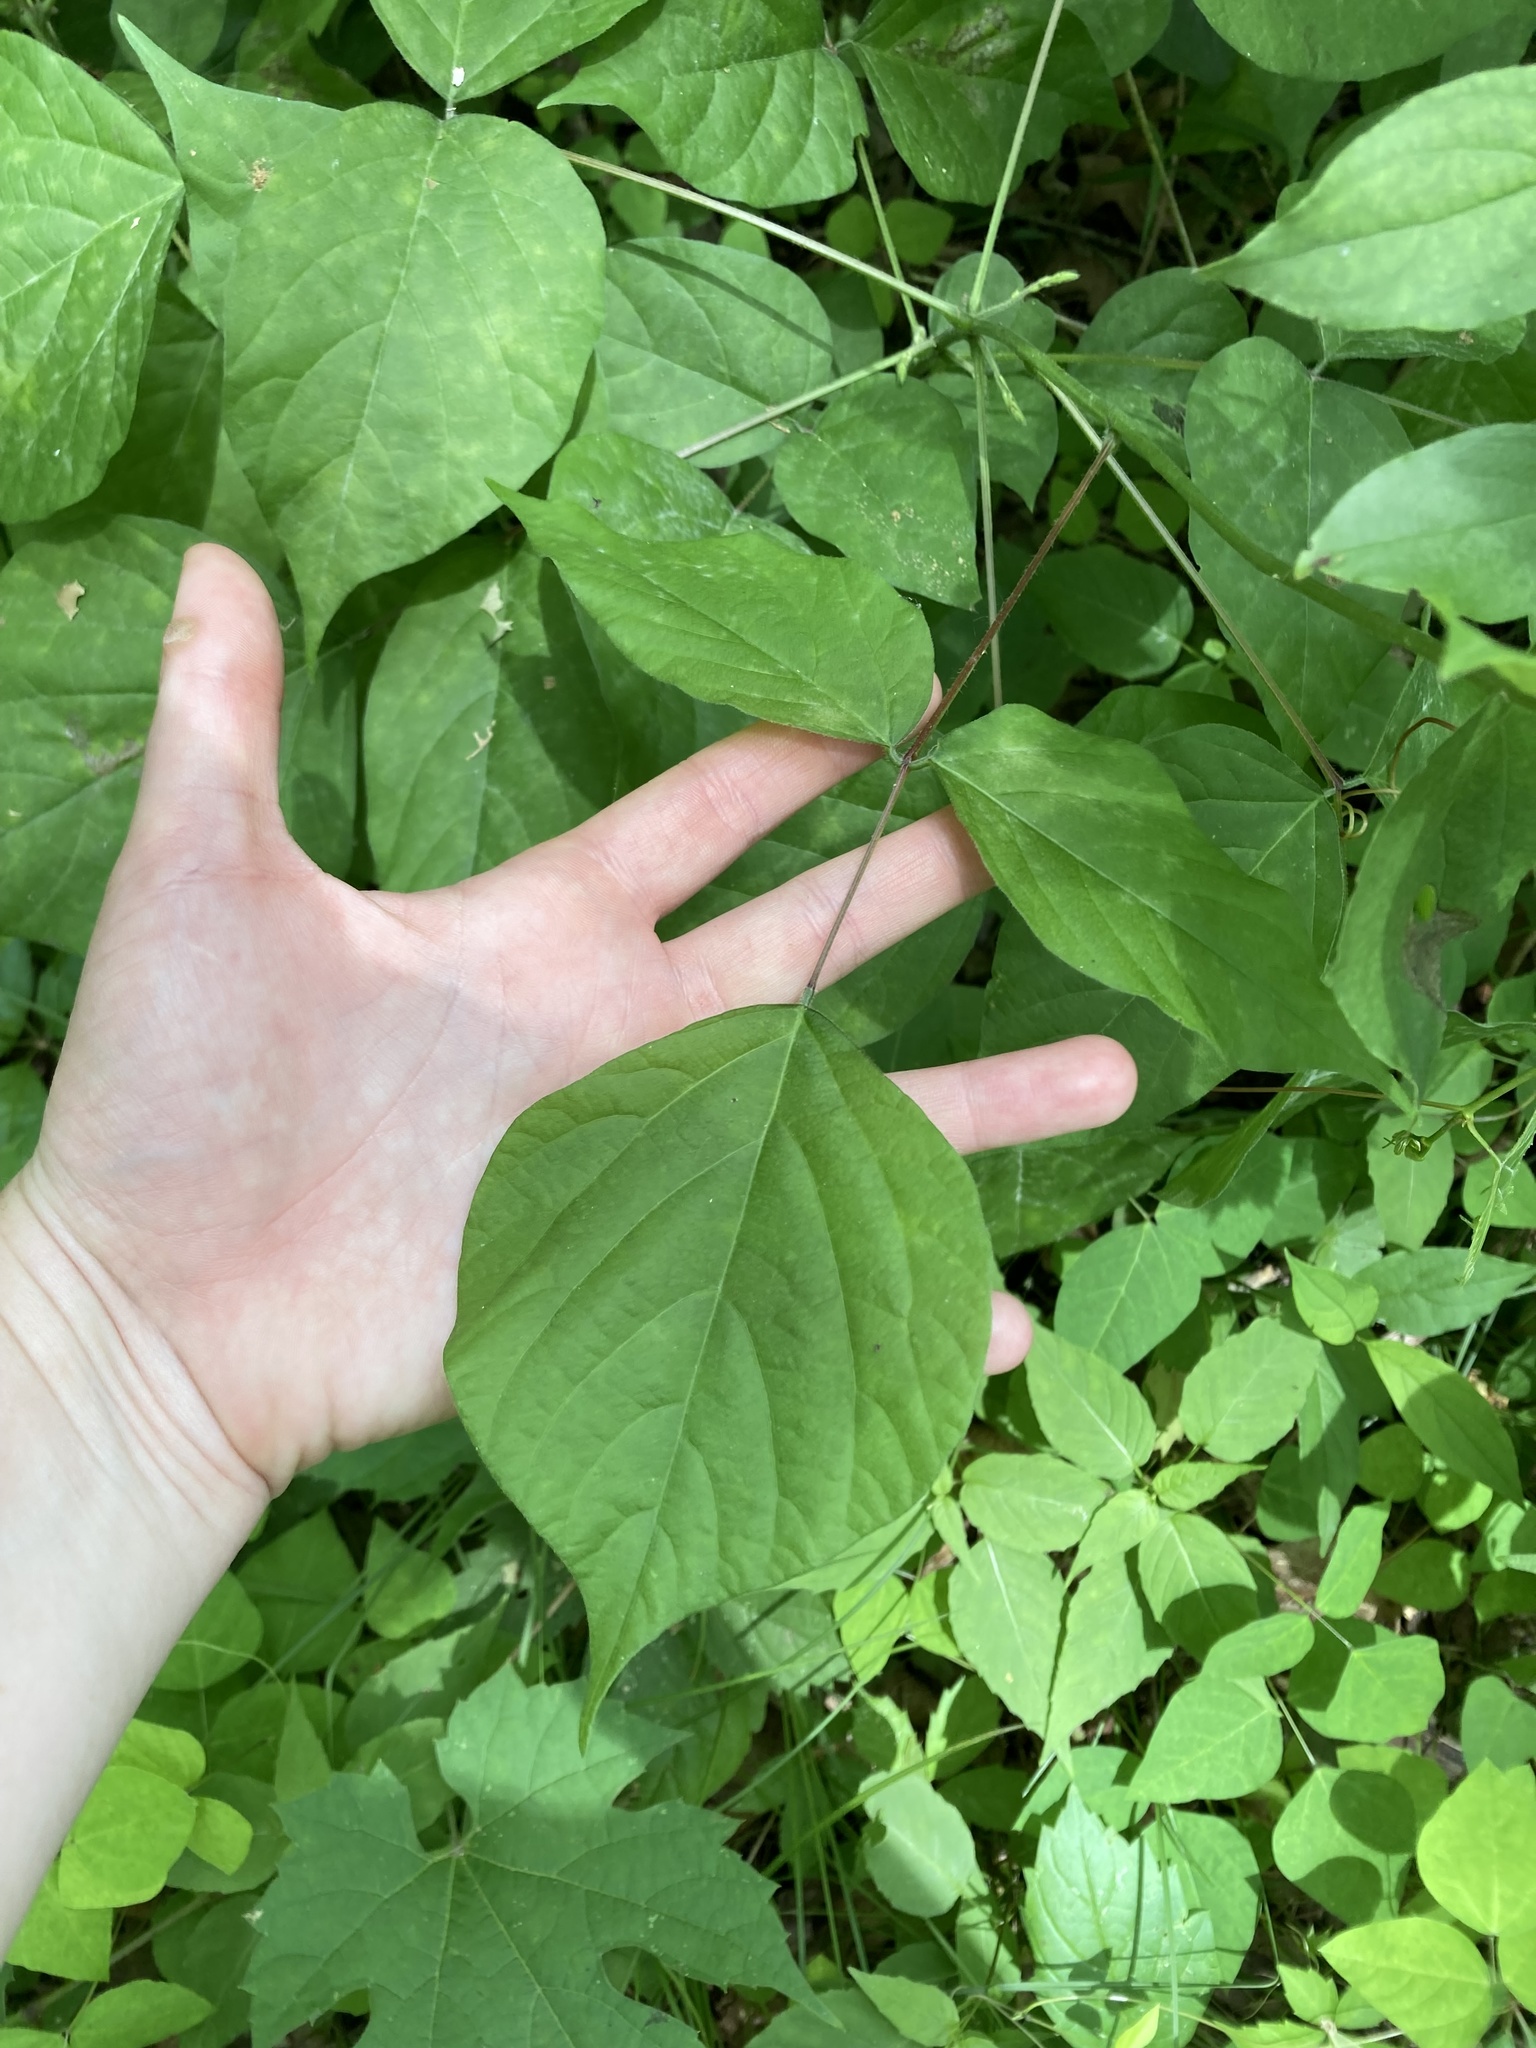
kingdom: Plantae
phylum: Tracheophyta
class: Magnoliopsida
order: Fabales
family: Fabaceae
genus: Hylodesmum
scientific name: Hylodesmum glutinosum
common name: Clustered-leaved tick-trefoil
